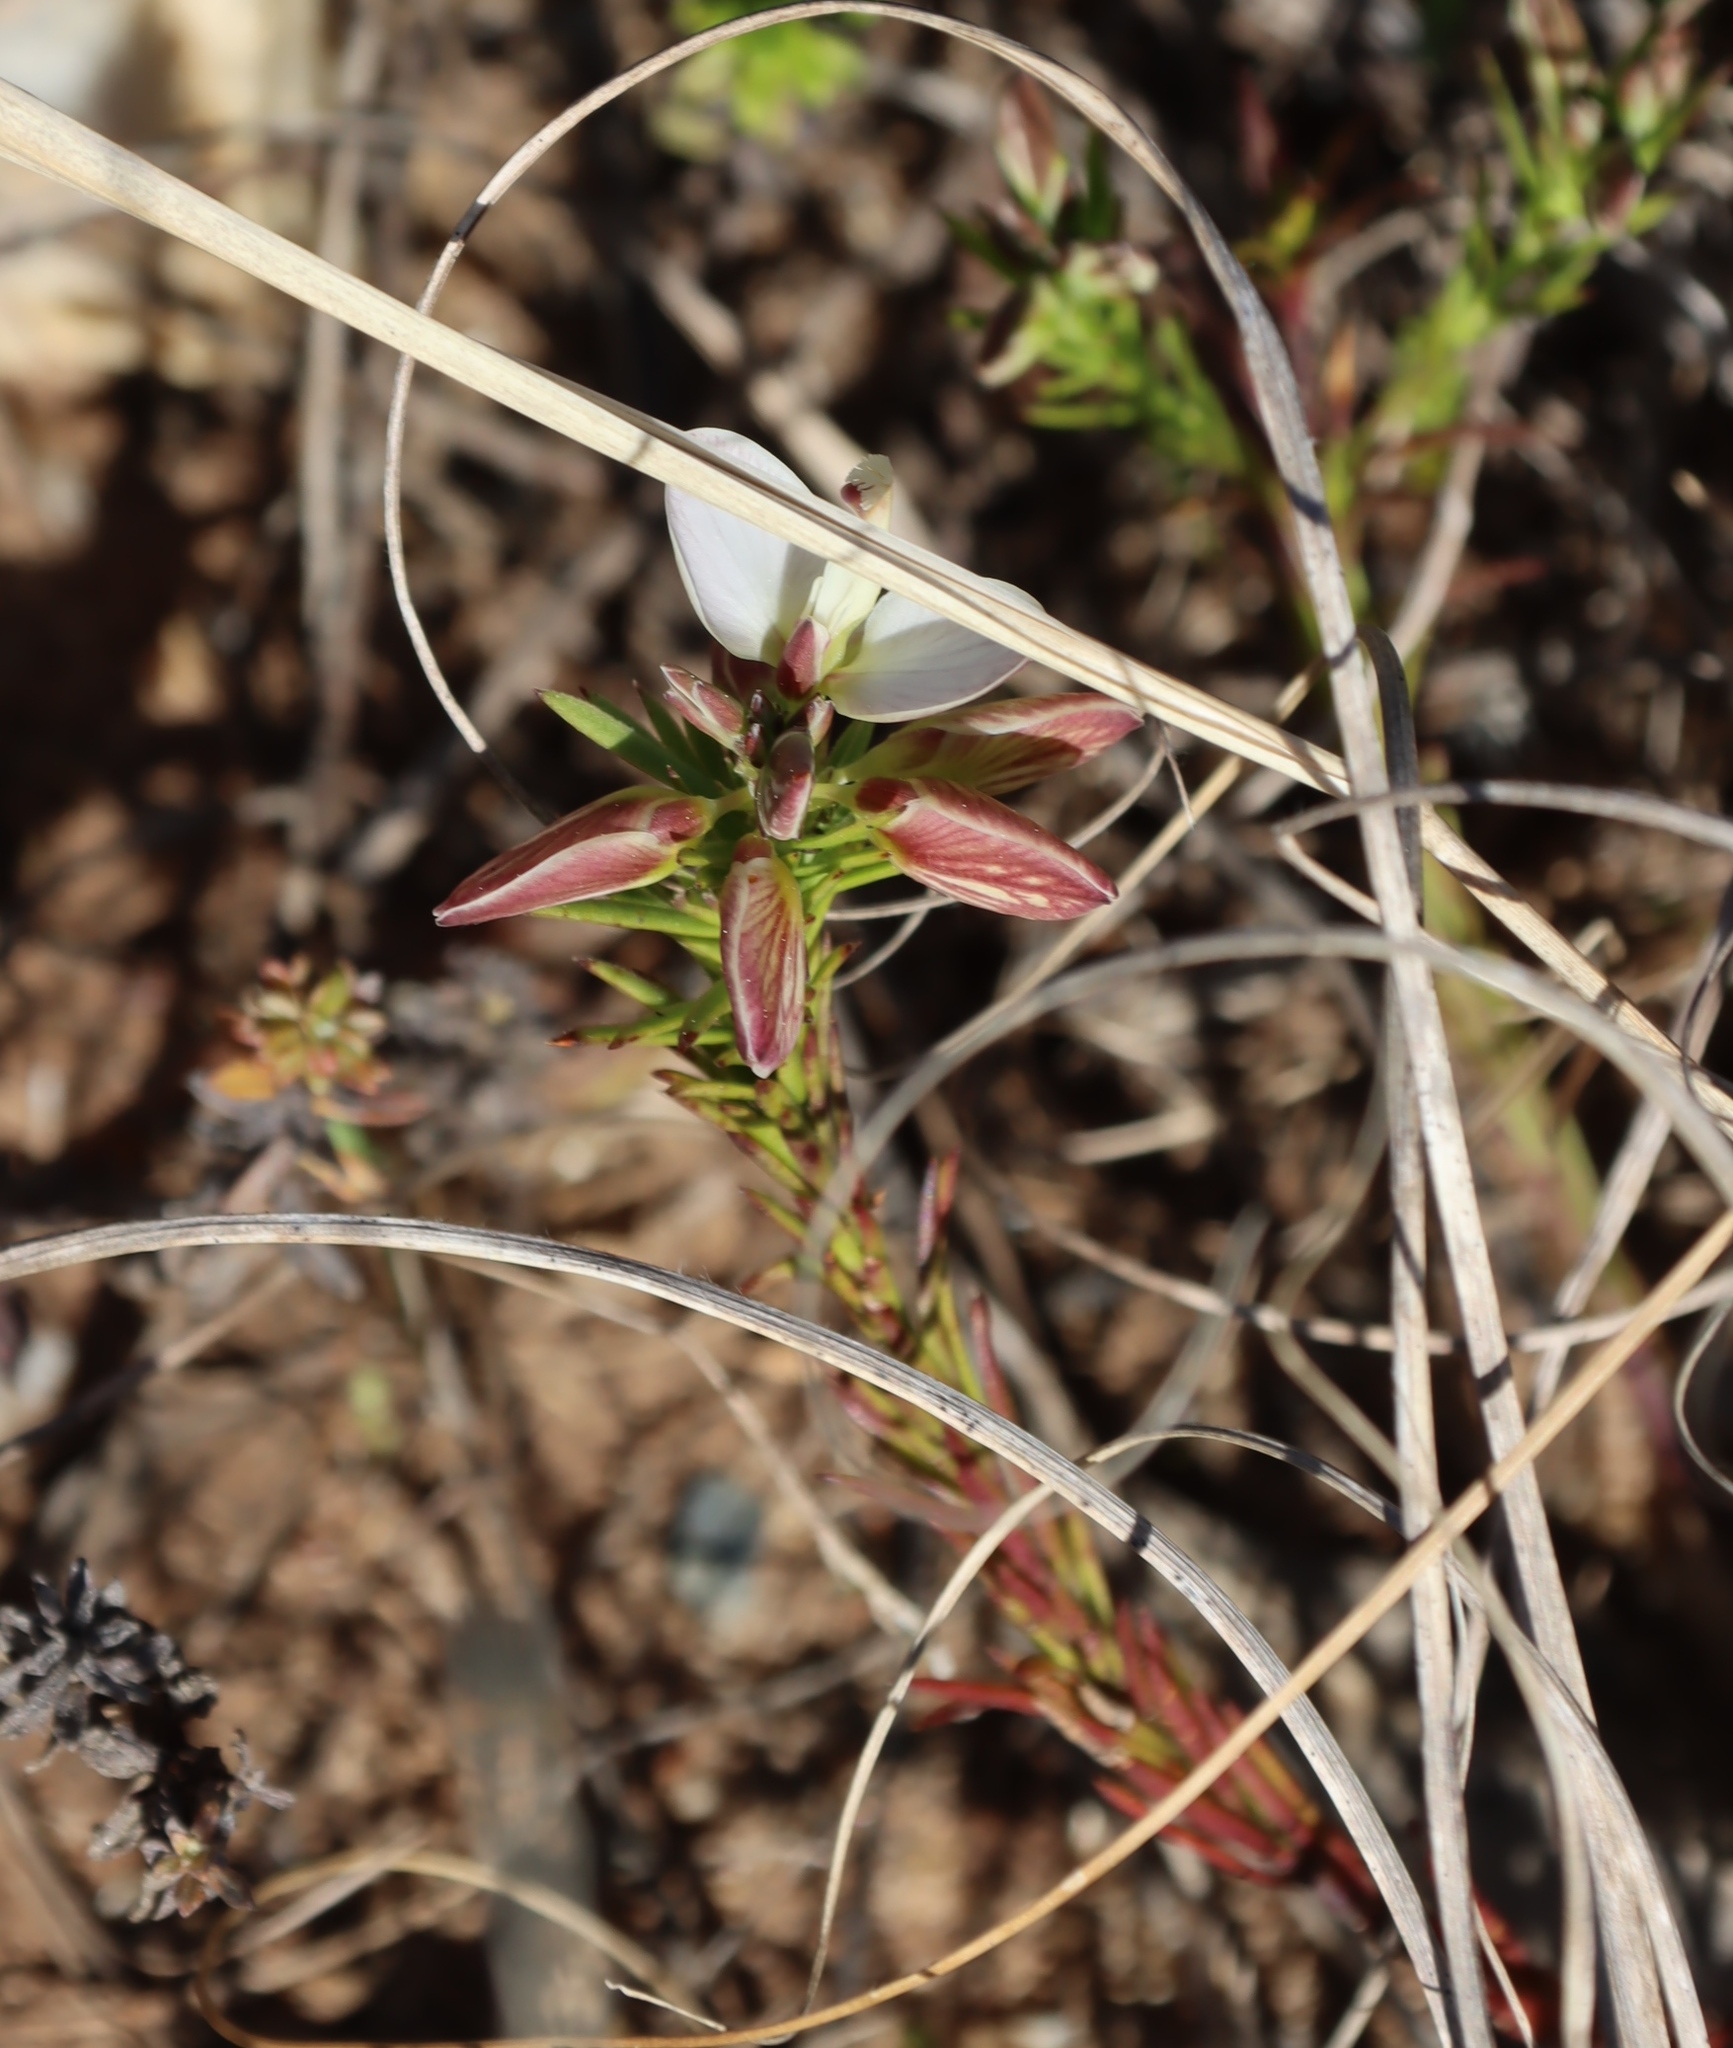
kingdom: Plantae
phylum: Tracheophyta
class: Magnoliopsida
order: Fabales
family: Polygalaceae
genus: Polygala
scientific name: Polygala levynsiana
